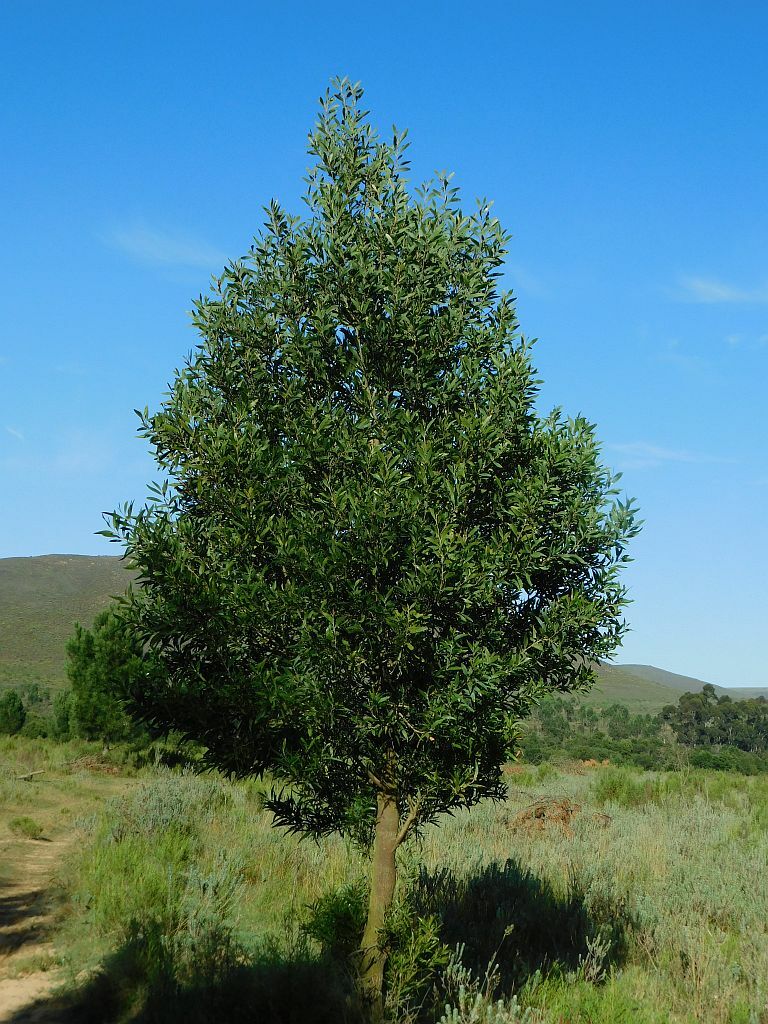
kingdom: Plantae
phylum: Tracheophyta
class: Magnoliopsida
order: Fabales
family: Fabaceae
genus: Acacia
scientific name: Acacia melanoxylon
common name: Blackwood
